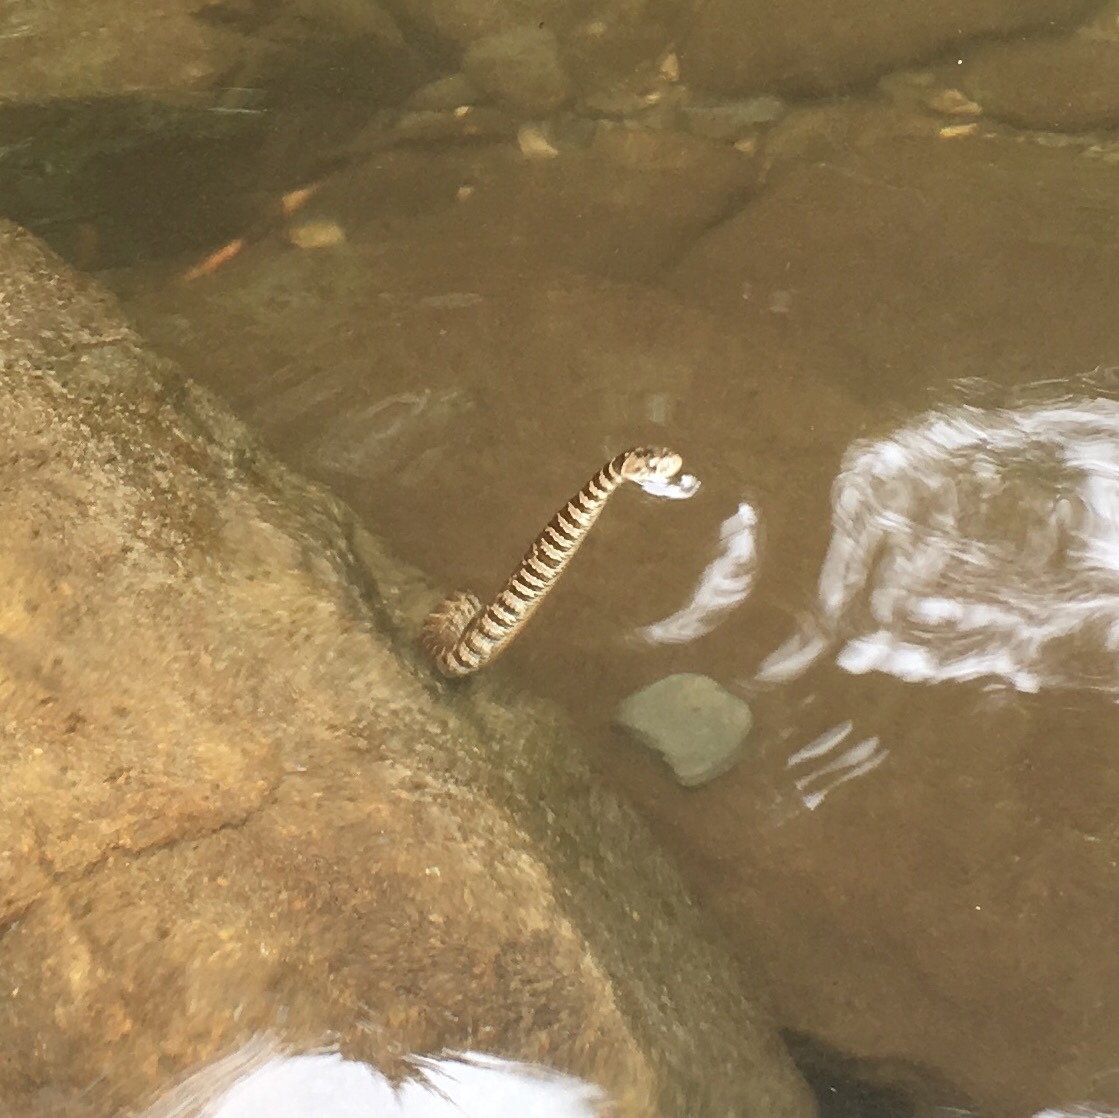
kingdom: Animalia
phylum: Chordata
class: Squamata
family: Colubridae
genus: Nerodia
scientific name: Nerodia sipedon
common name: Northern water snake
